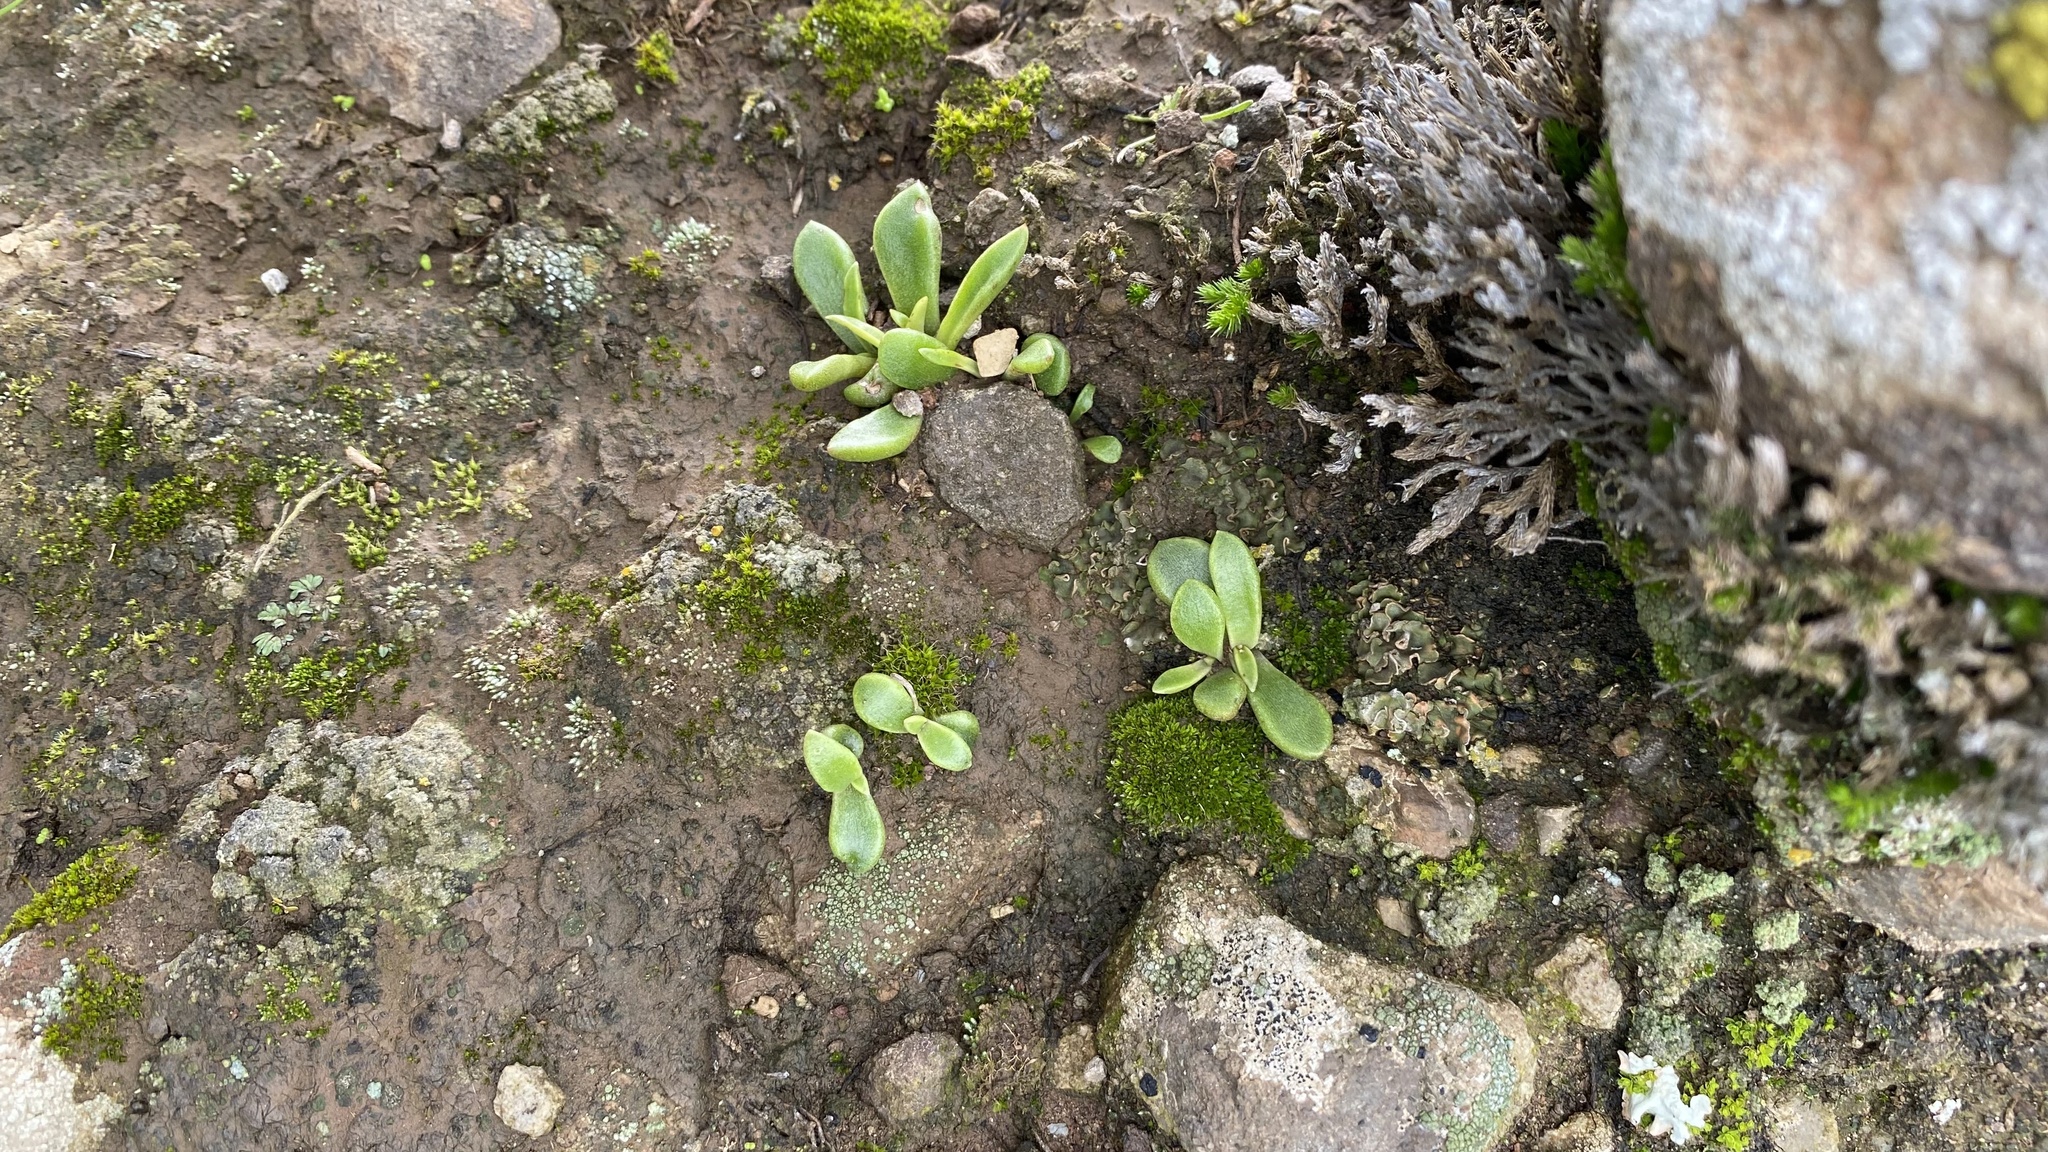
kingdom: Plantae
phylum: Tracheophyta
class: Magnoliopsida
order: Saxifragales
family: Crassulaceae
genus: Dudleya
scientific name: Dudleya parva
